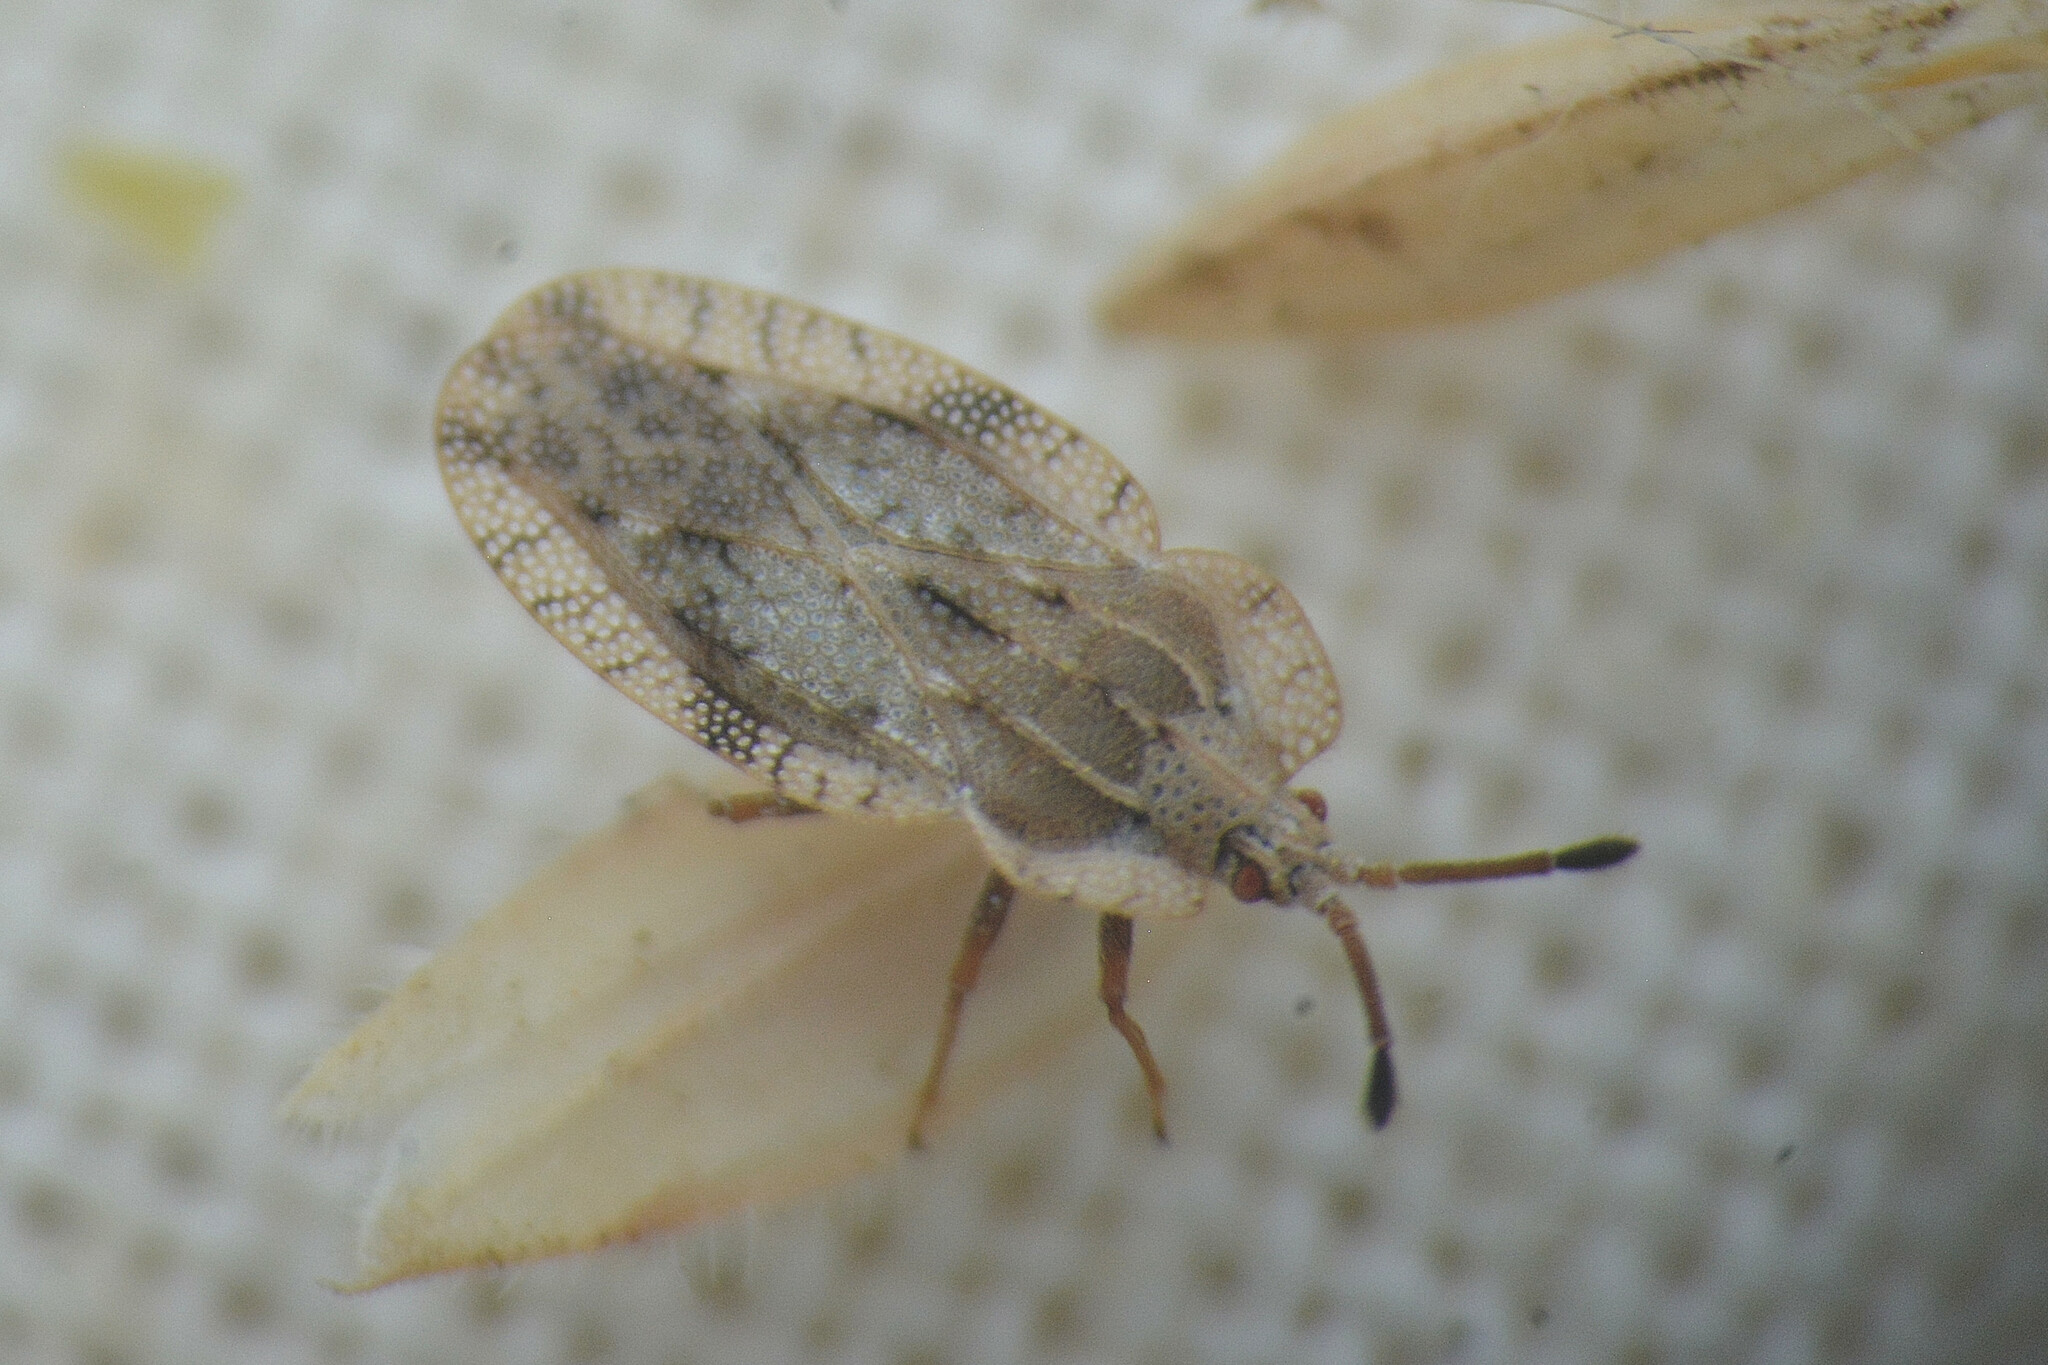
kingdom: Animalia
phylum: Arthropoda
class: Insecta
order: Hemiptera
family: Tingidae
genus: Tingis
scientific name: Tingis ampliata
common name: Creeping thistle lacebug
